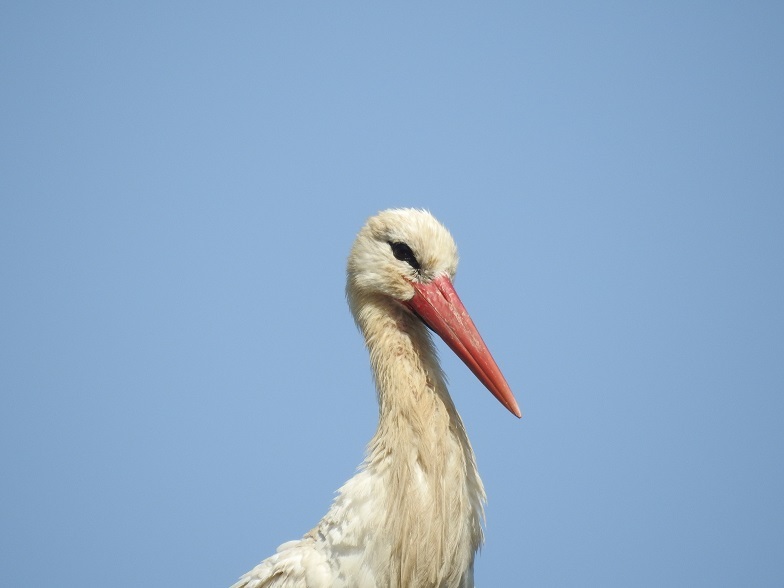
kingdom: Animalia
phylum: Chordata
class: Aves
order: Ciconiiformes
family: Ciconiidae
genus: Ciconia
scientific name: Ciconia ciconia
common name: White stork
